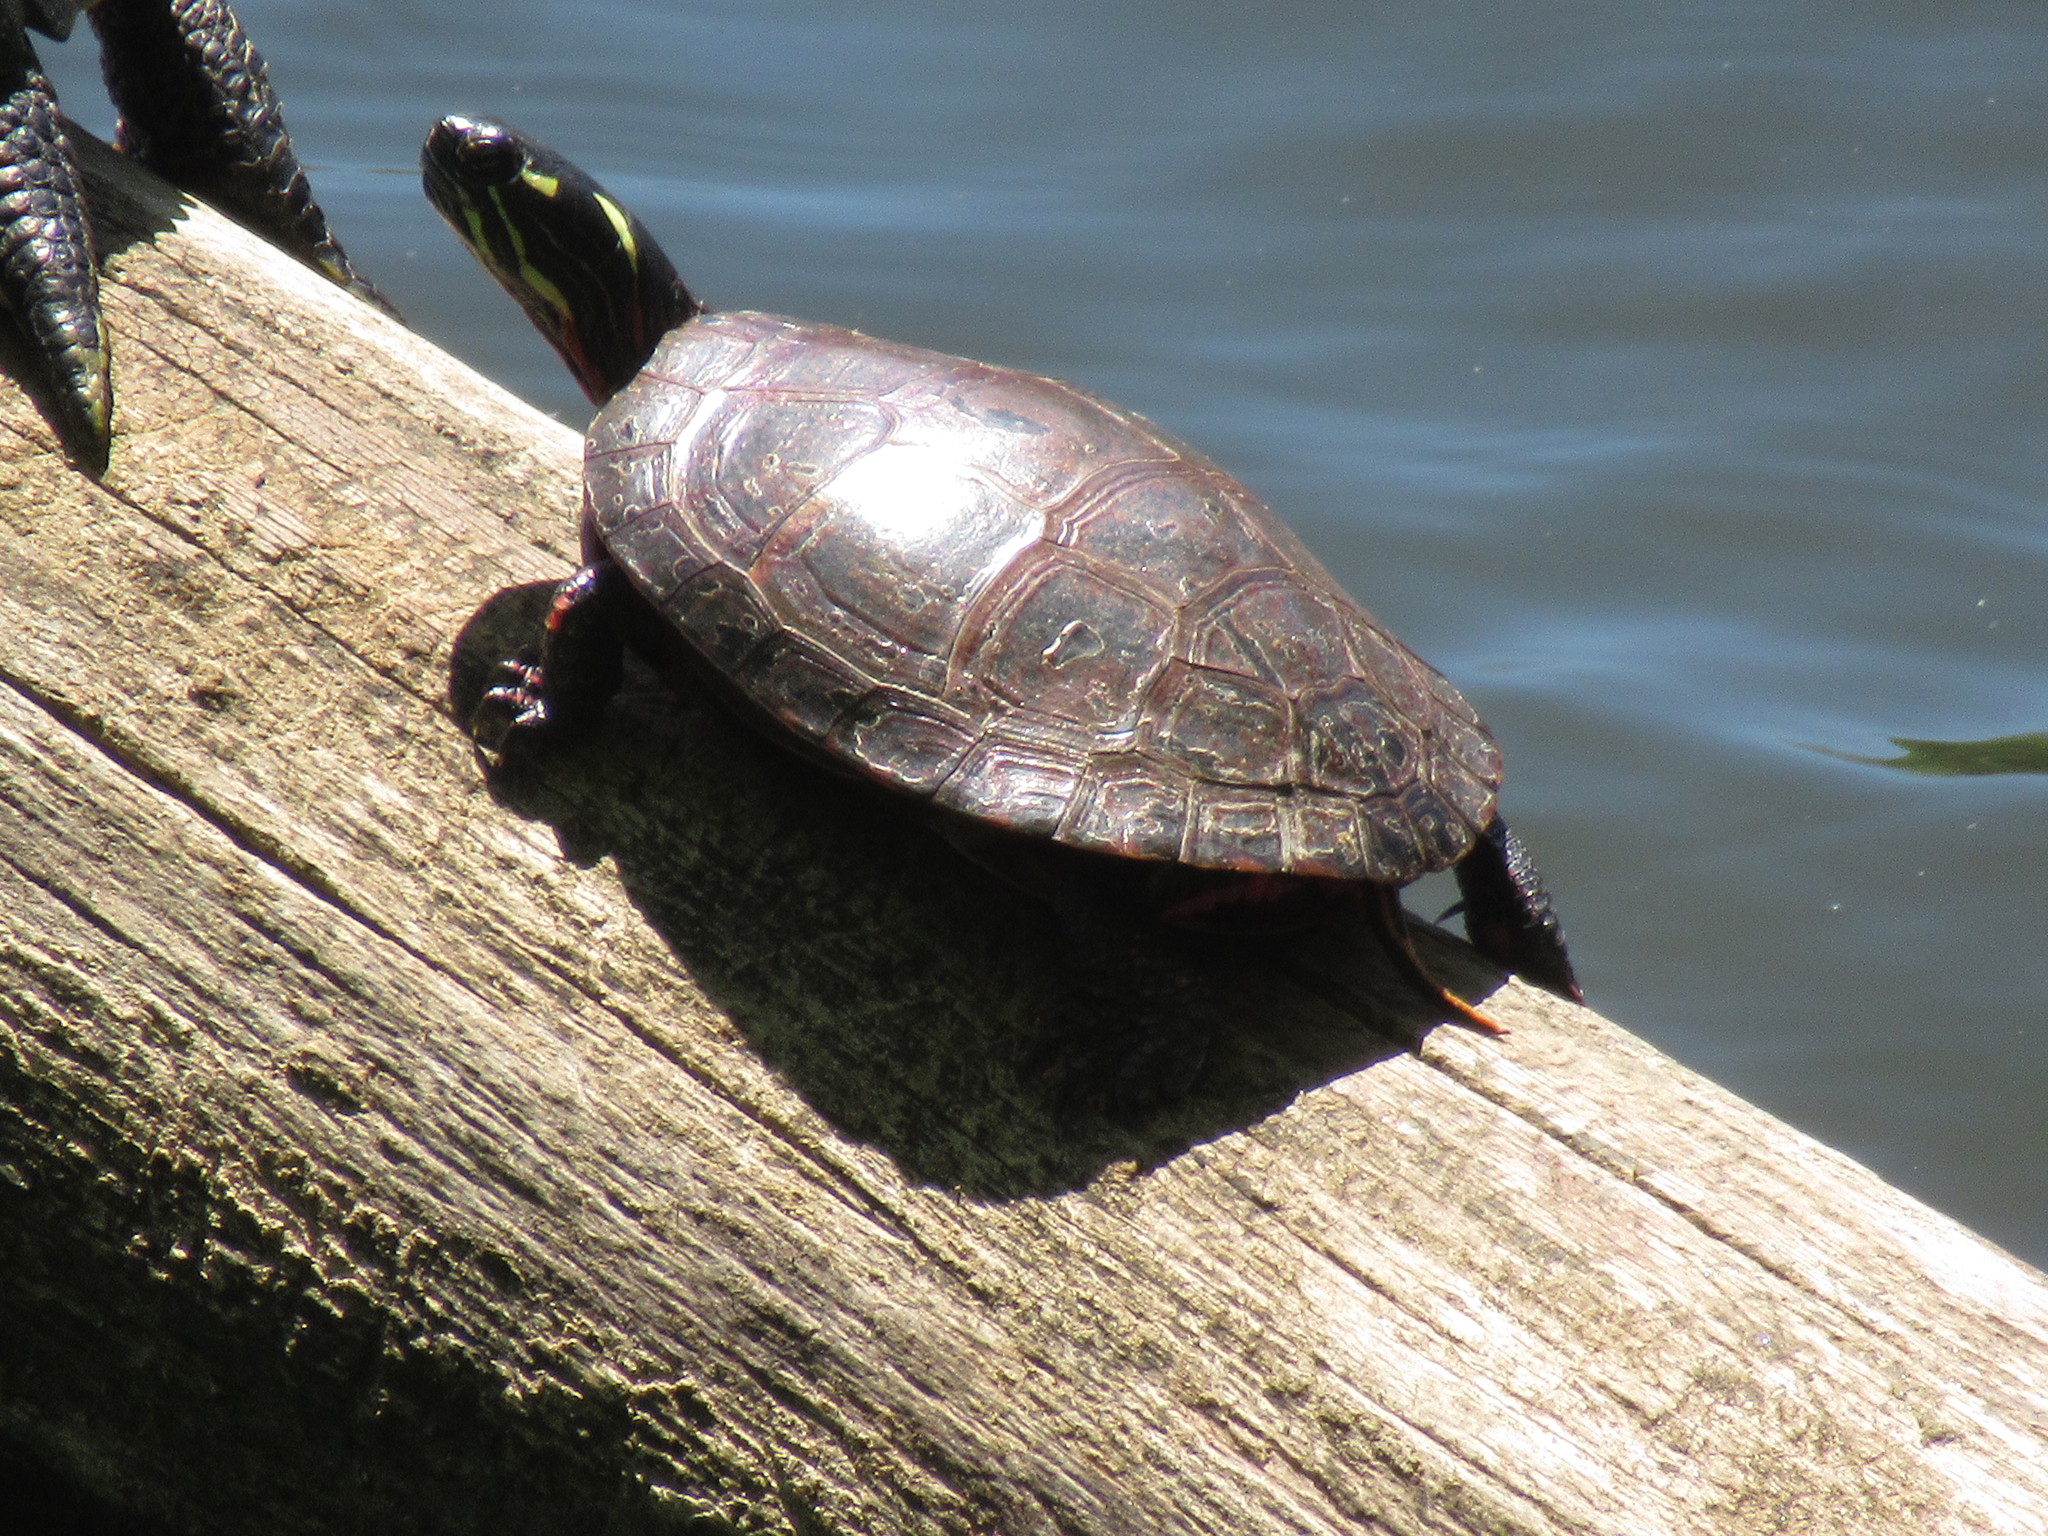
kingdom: Animalia
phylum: Chordata
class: Testudines
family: Emydidae
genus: Chrysemys
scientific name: Chrysemys picta
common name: Painted turtle
